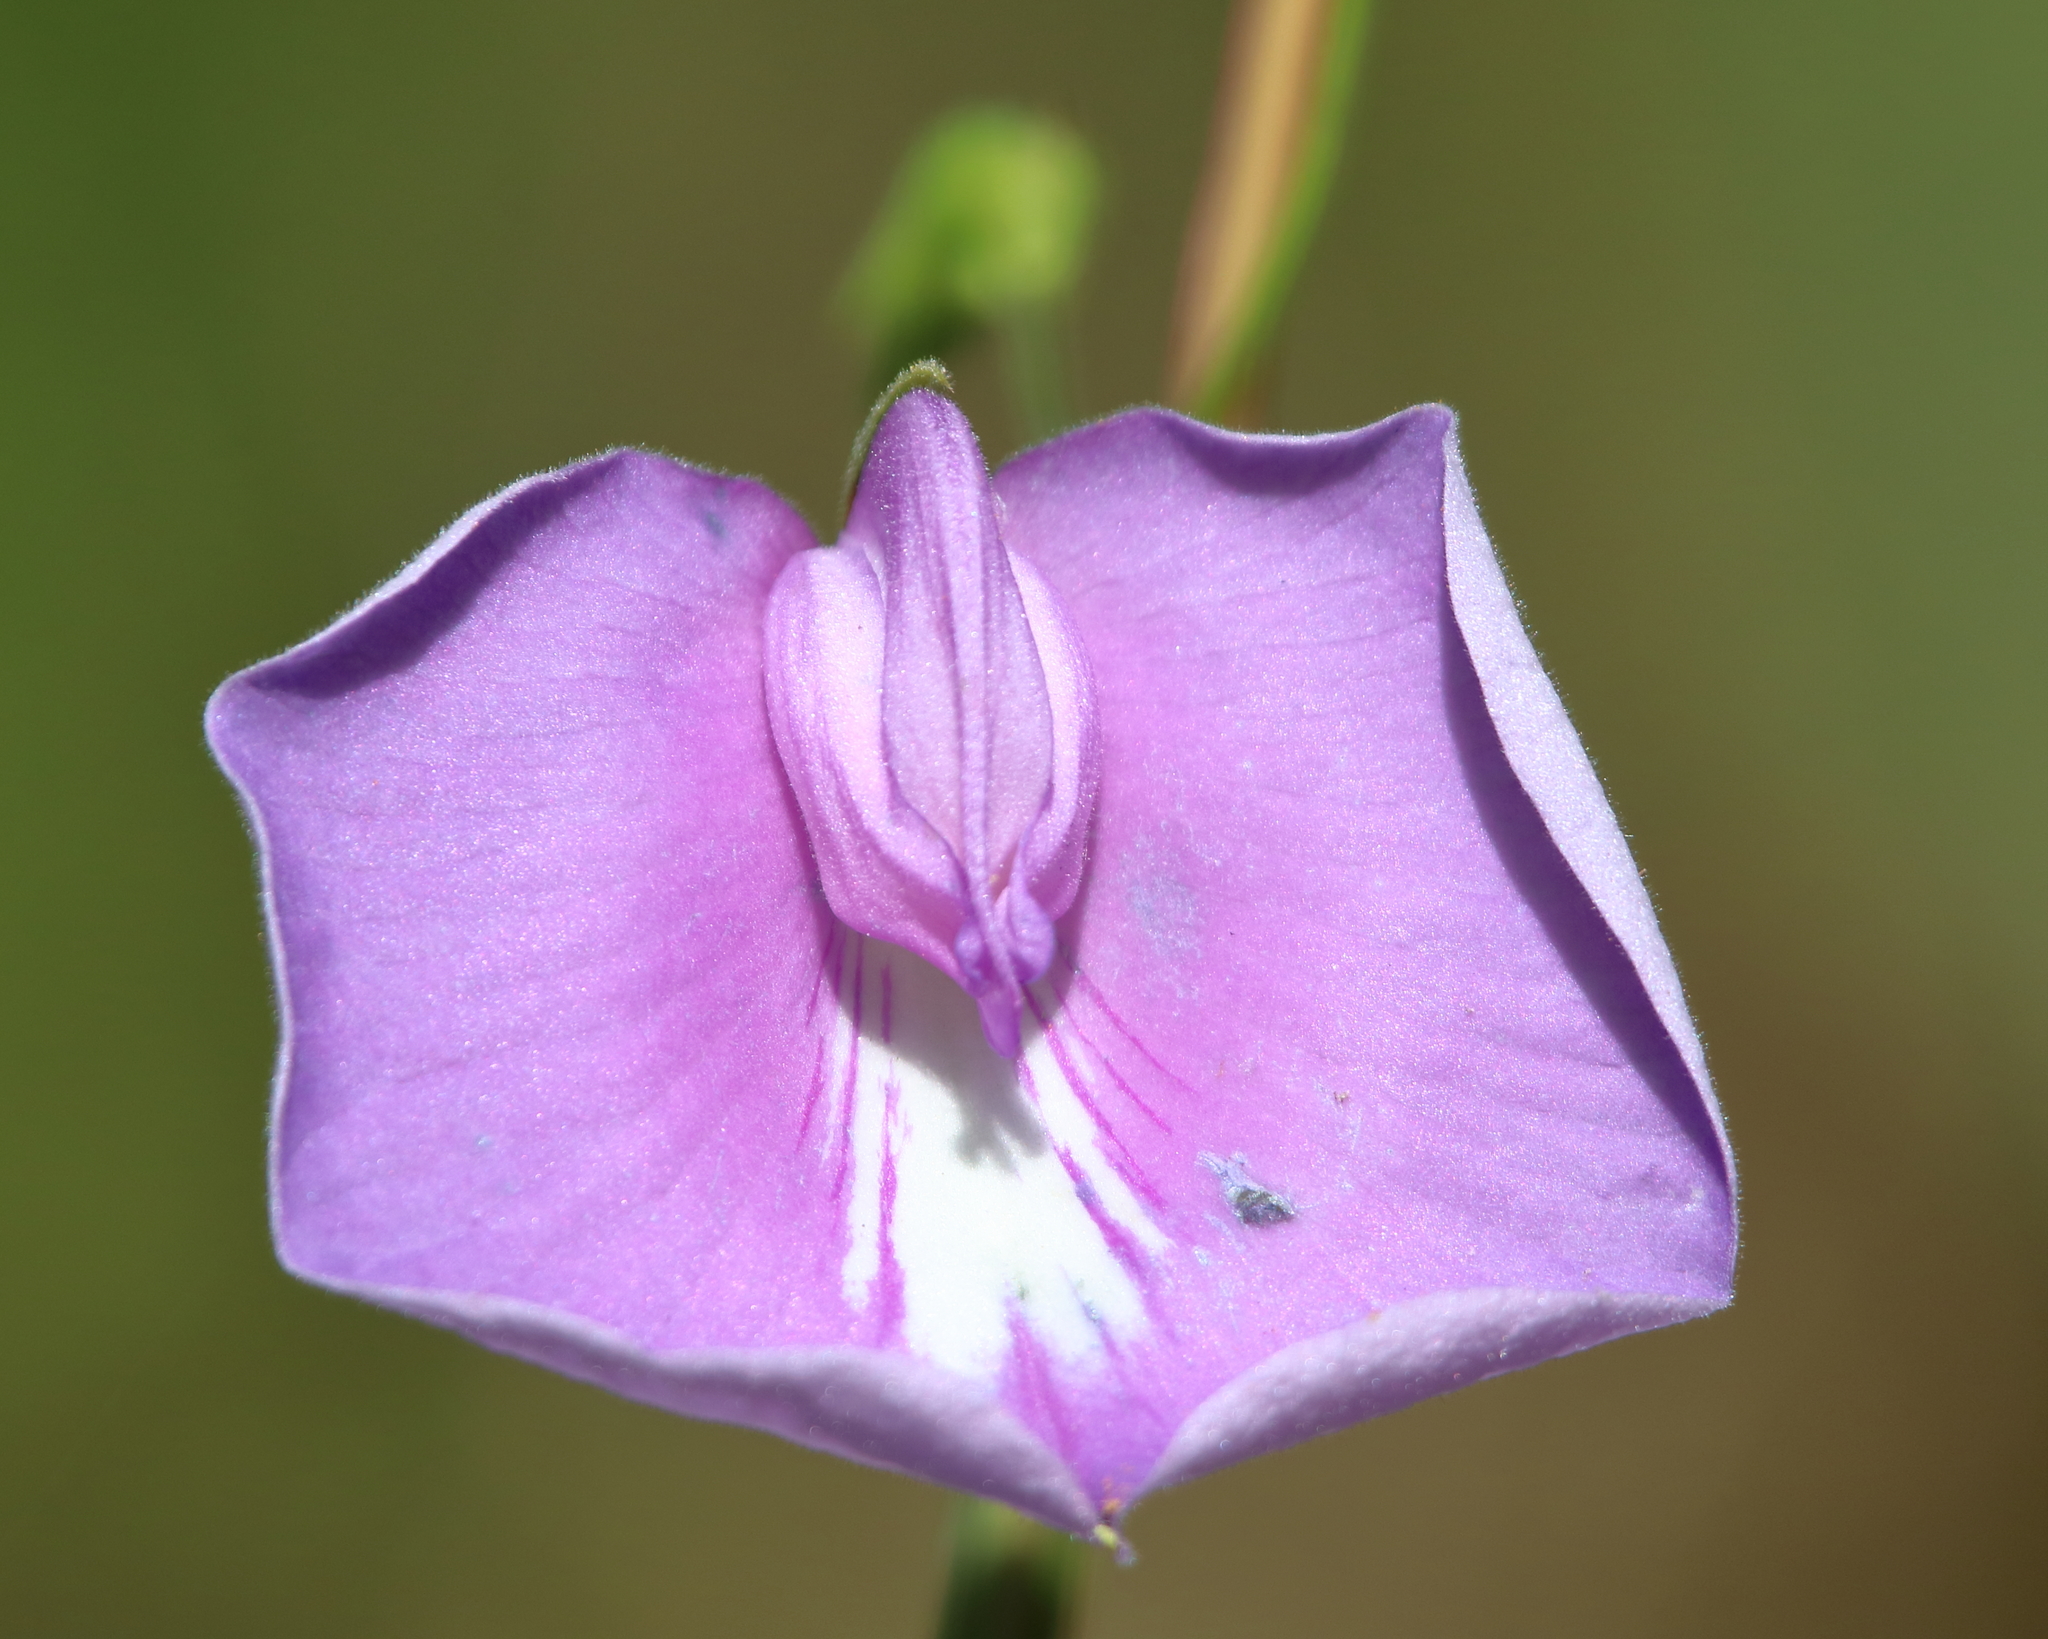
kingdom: Plantae
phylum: Tracheophyta
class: Magnoliopsida
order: Fabales
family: Fabaceae
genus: Centrosema
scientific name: Centrosema virginianum
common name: Butterfly-pea
